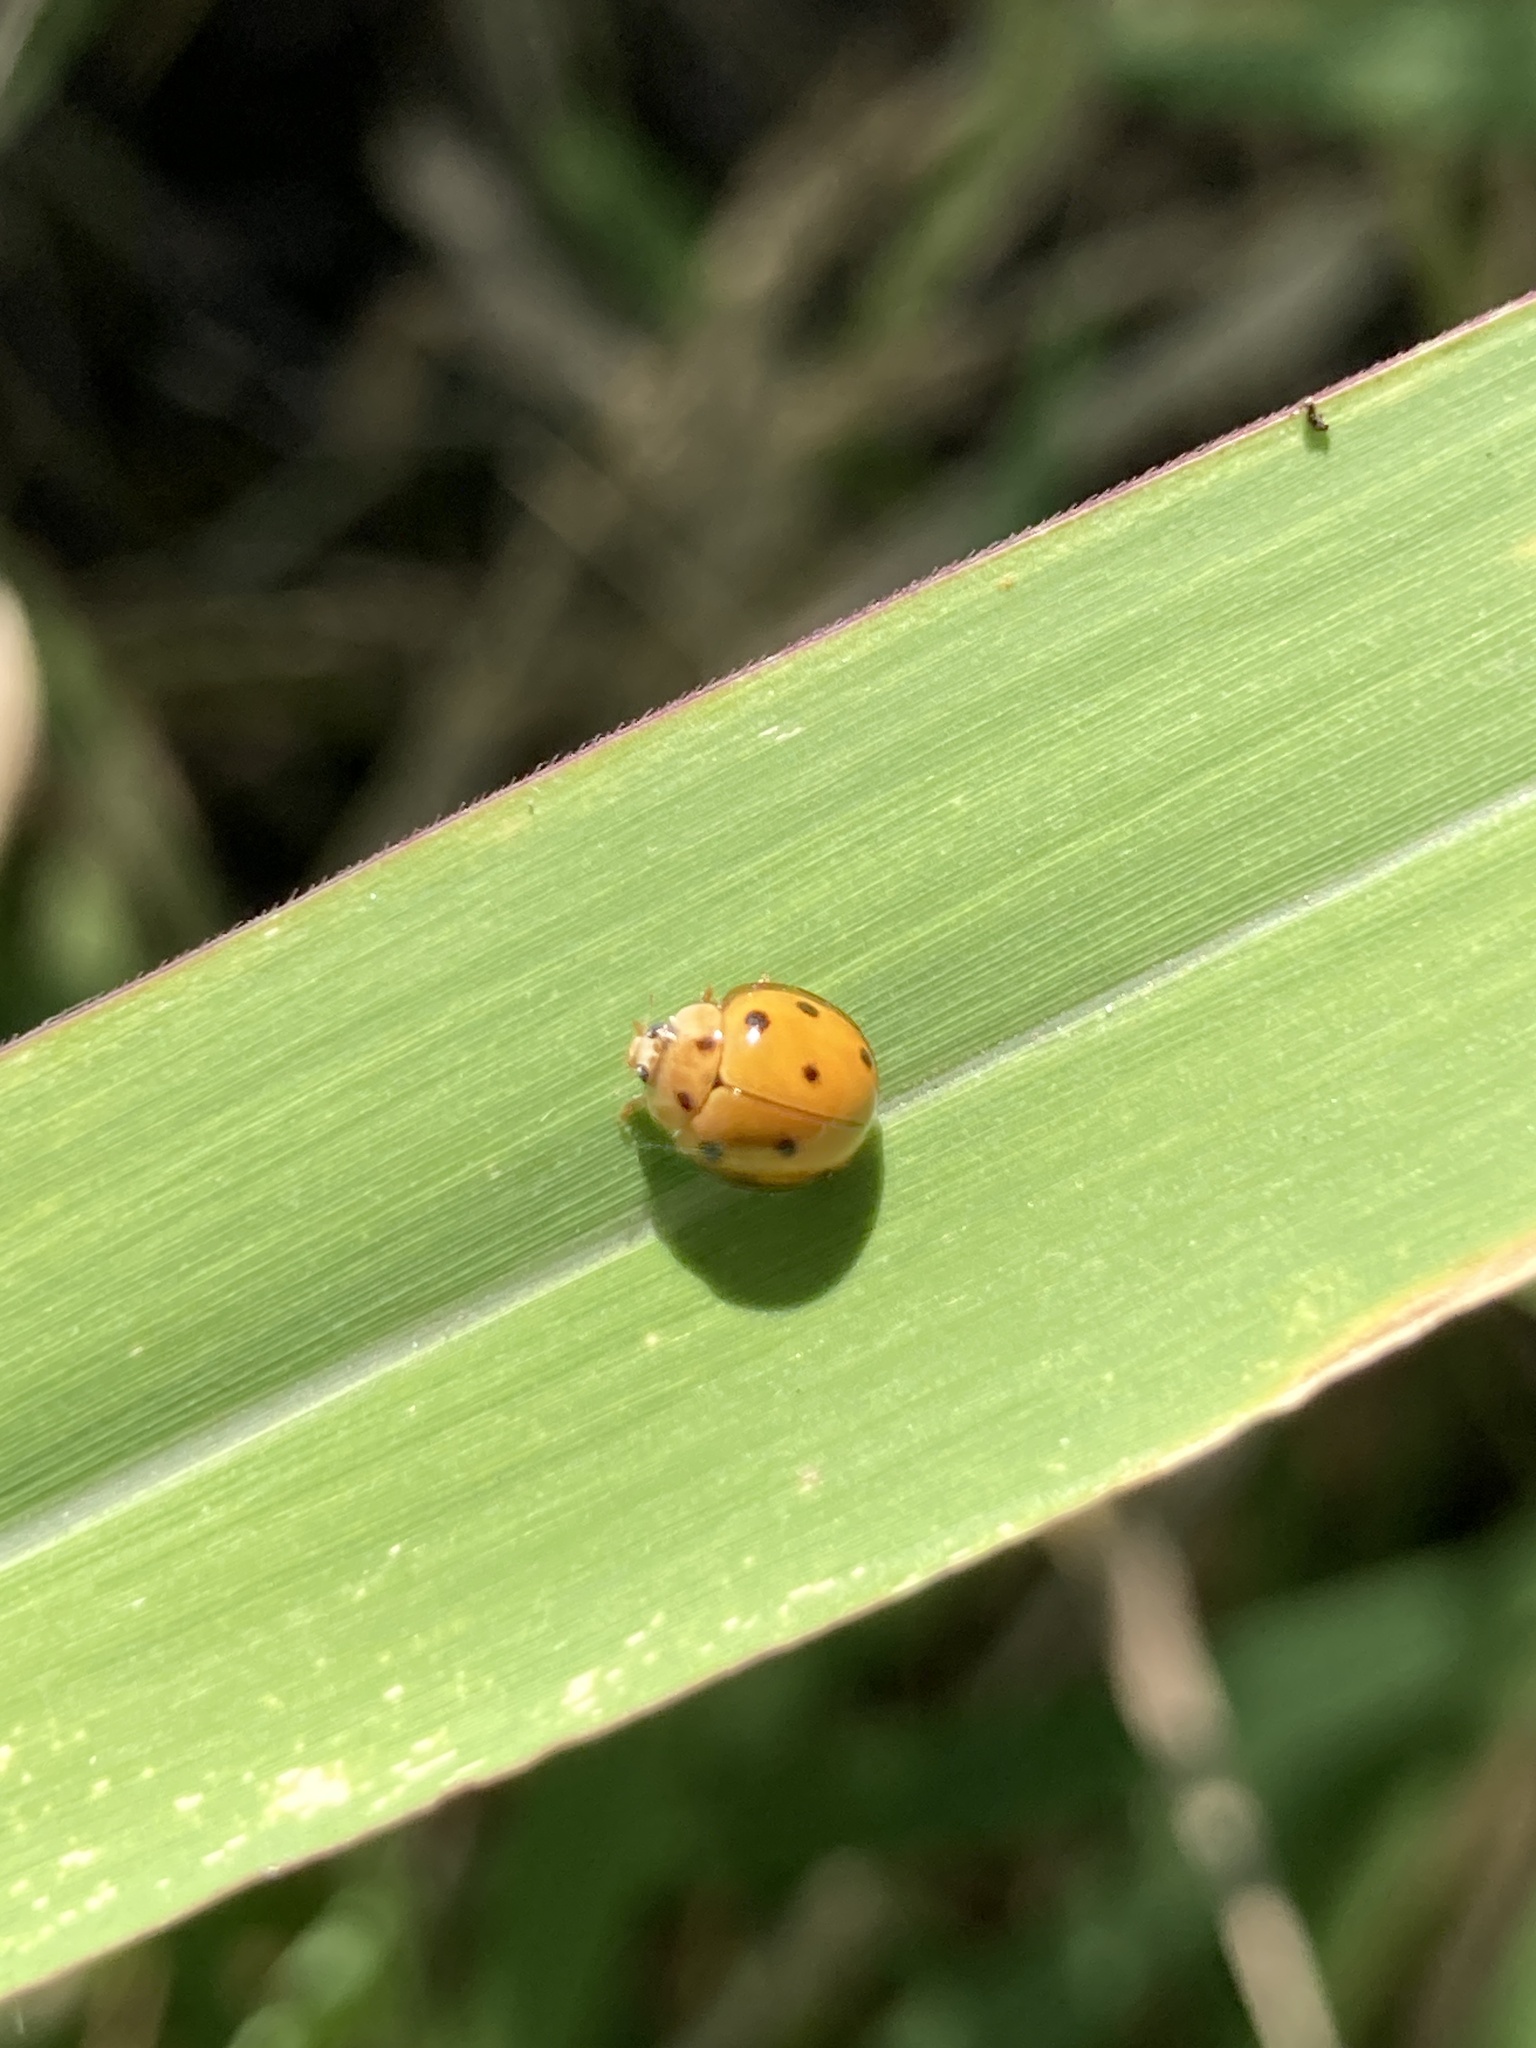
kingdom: Animalia
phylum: Arthropoda
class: Insecta
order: Coleoptera
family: Coccinellidae
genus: Coelophora
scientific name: Coelophora inaequalis
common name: Common australian lady beetle
